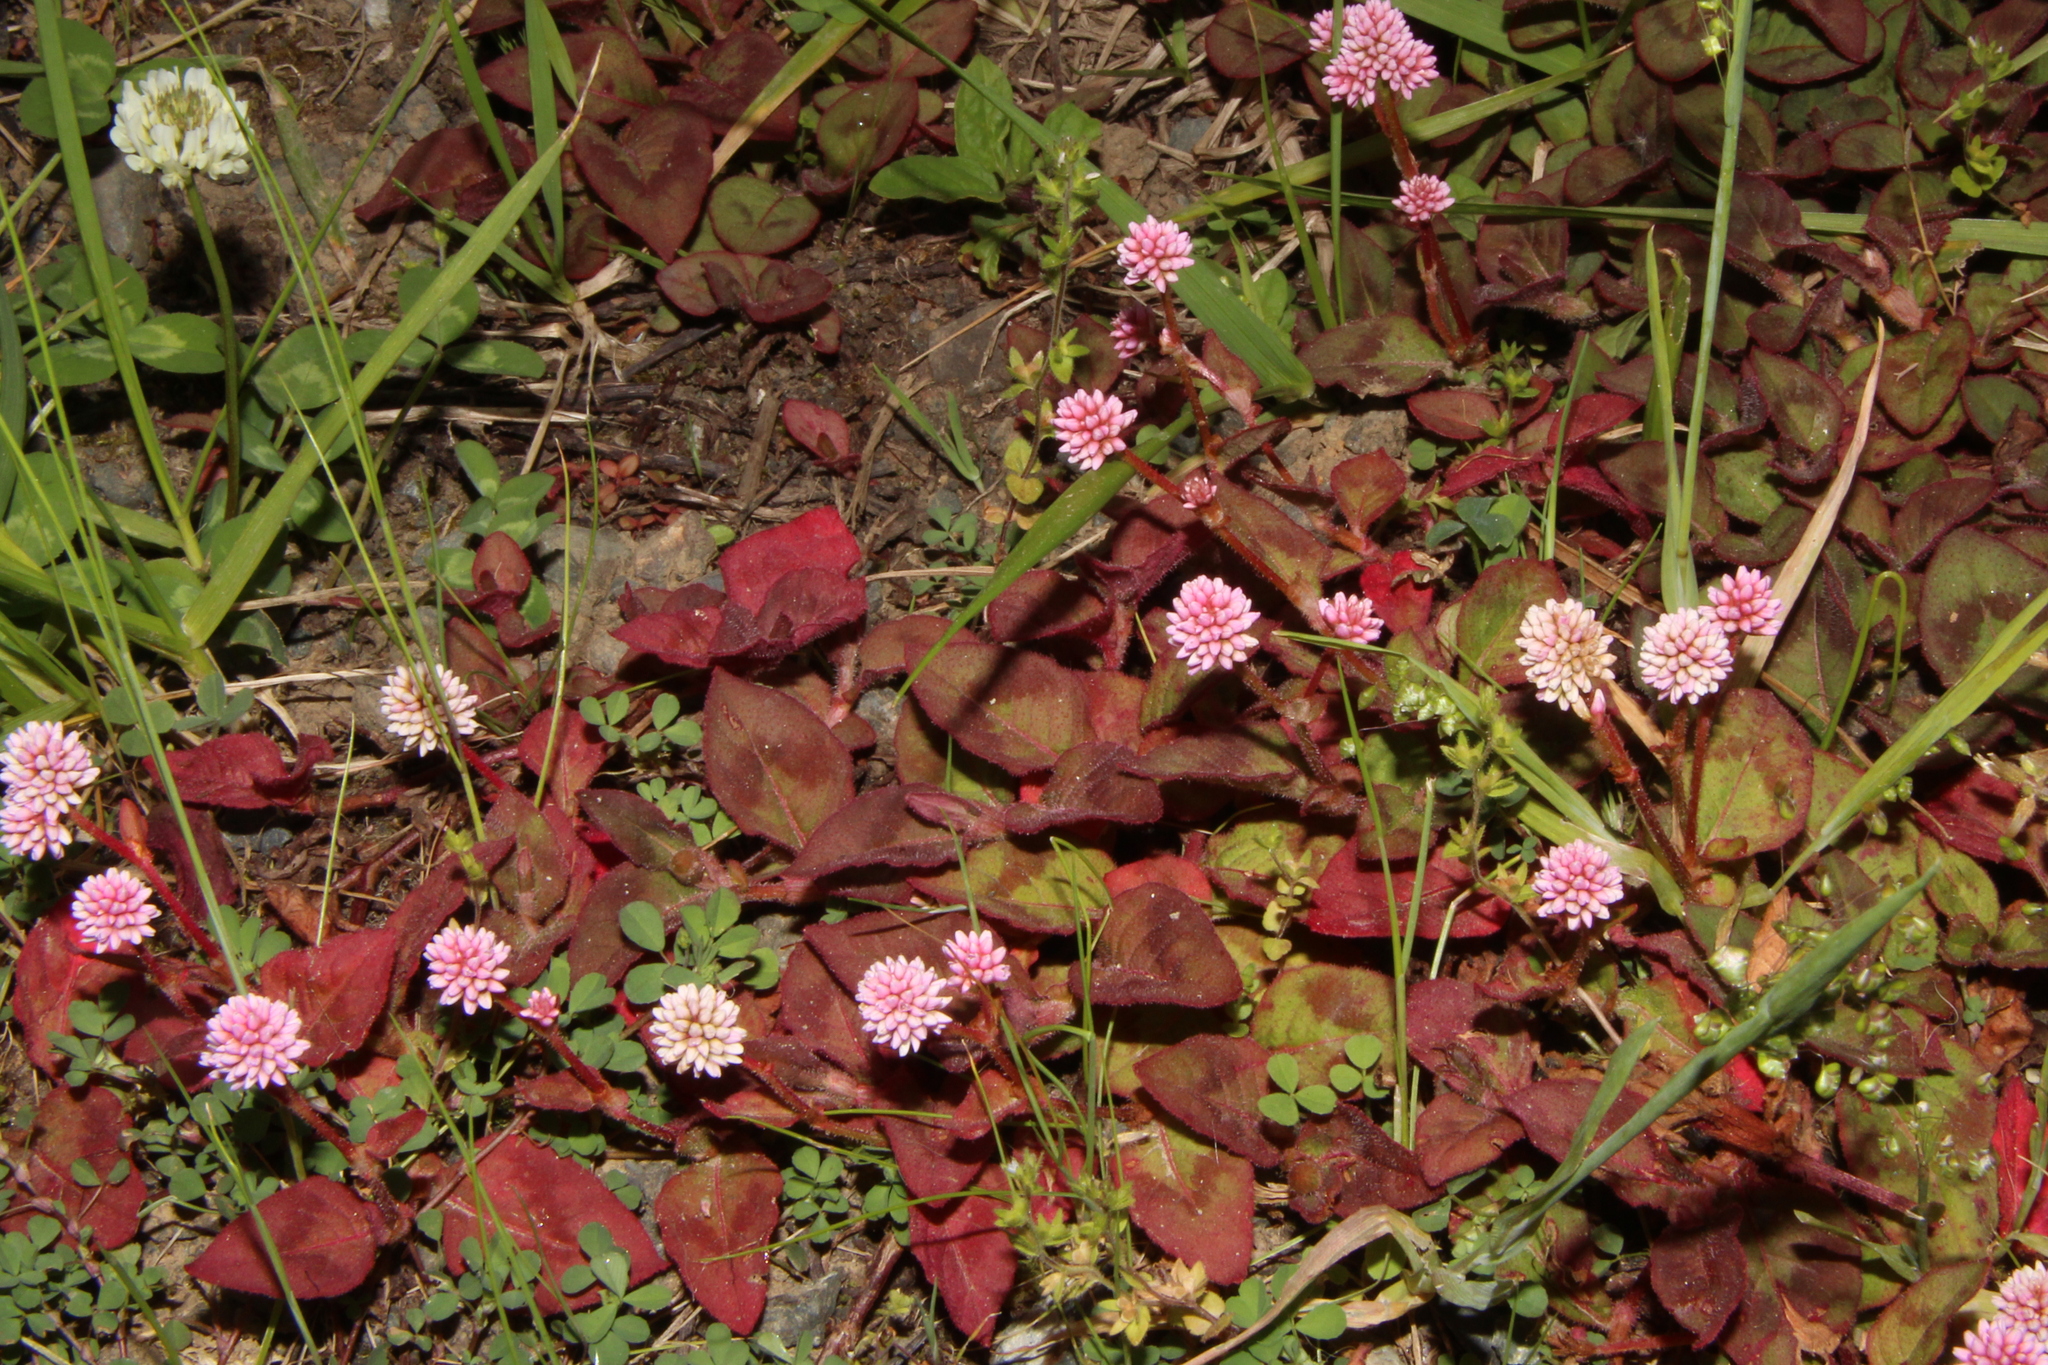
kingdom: Plantae
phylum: Tracheophyta
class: Magnoliopsida
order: Caryophyllales
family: Polygonaceae
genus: Persicaria
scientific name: Persicaria capitata
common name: Pinkhead smartweed
